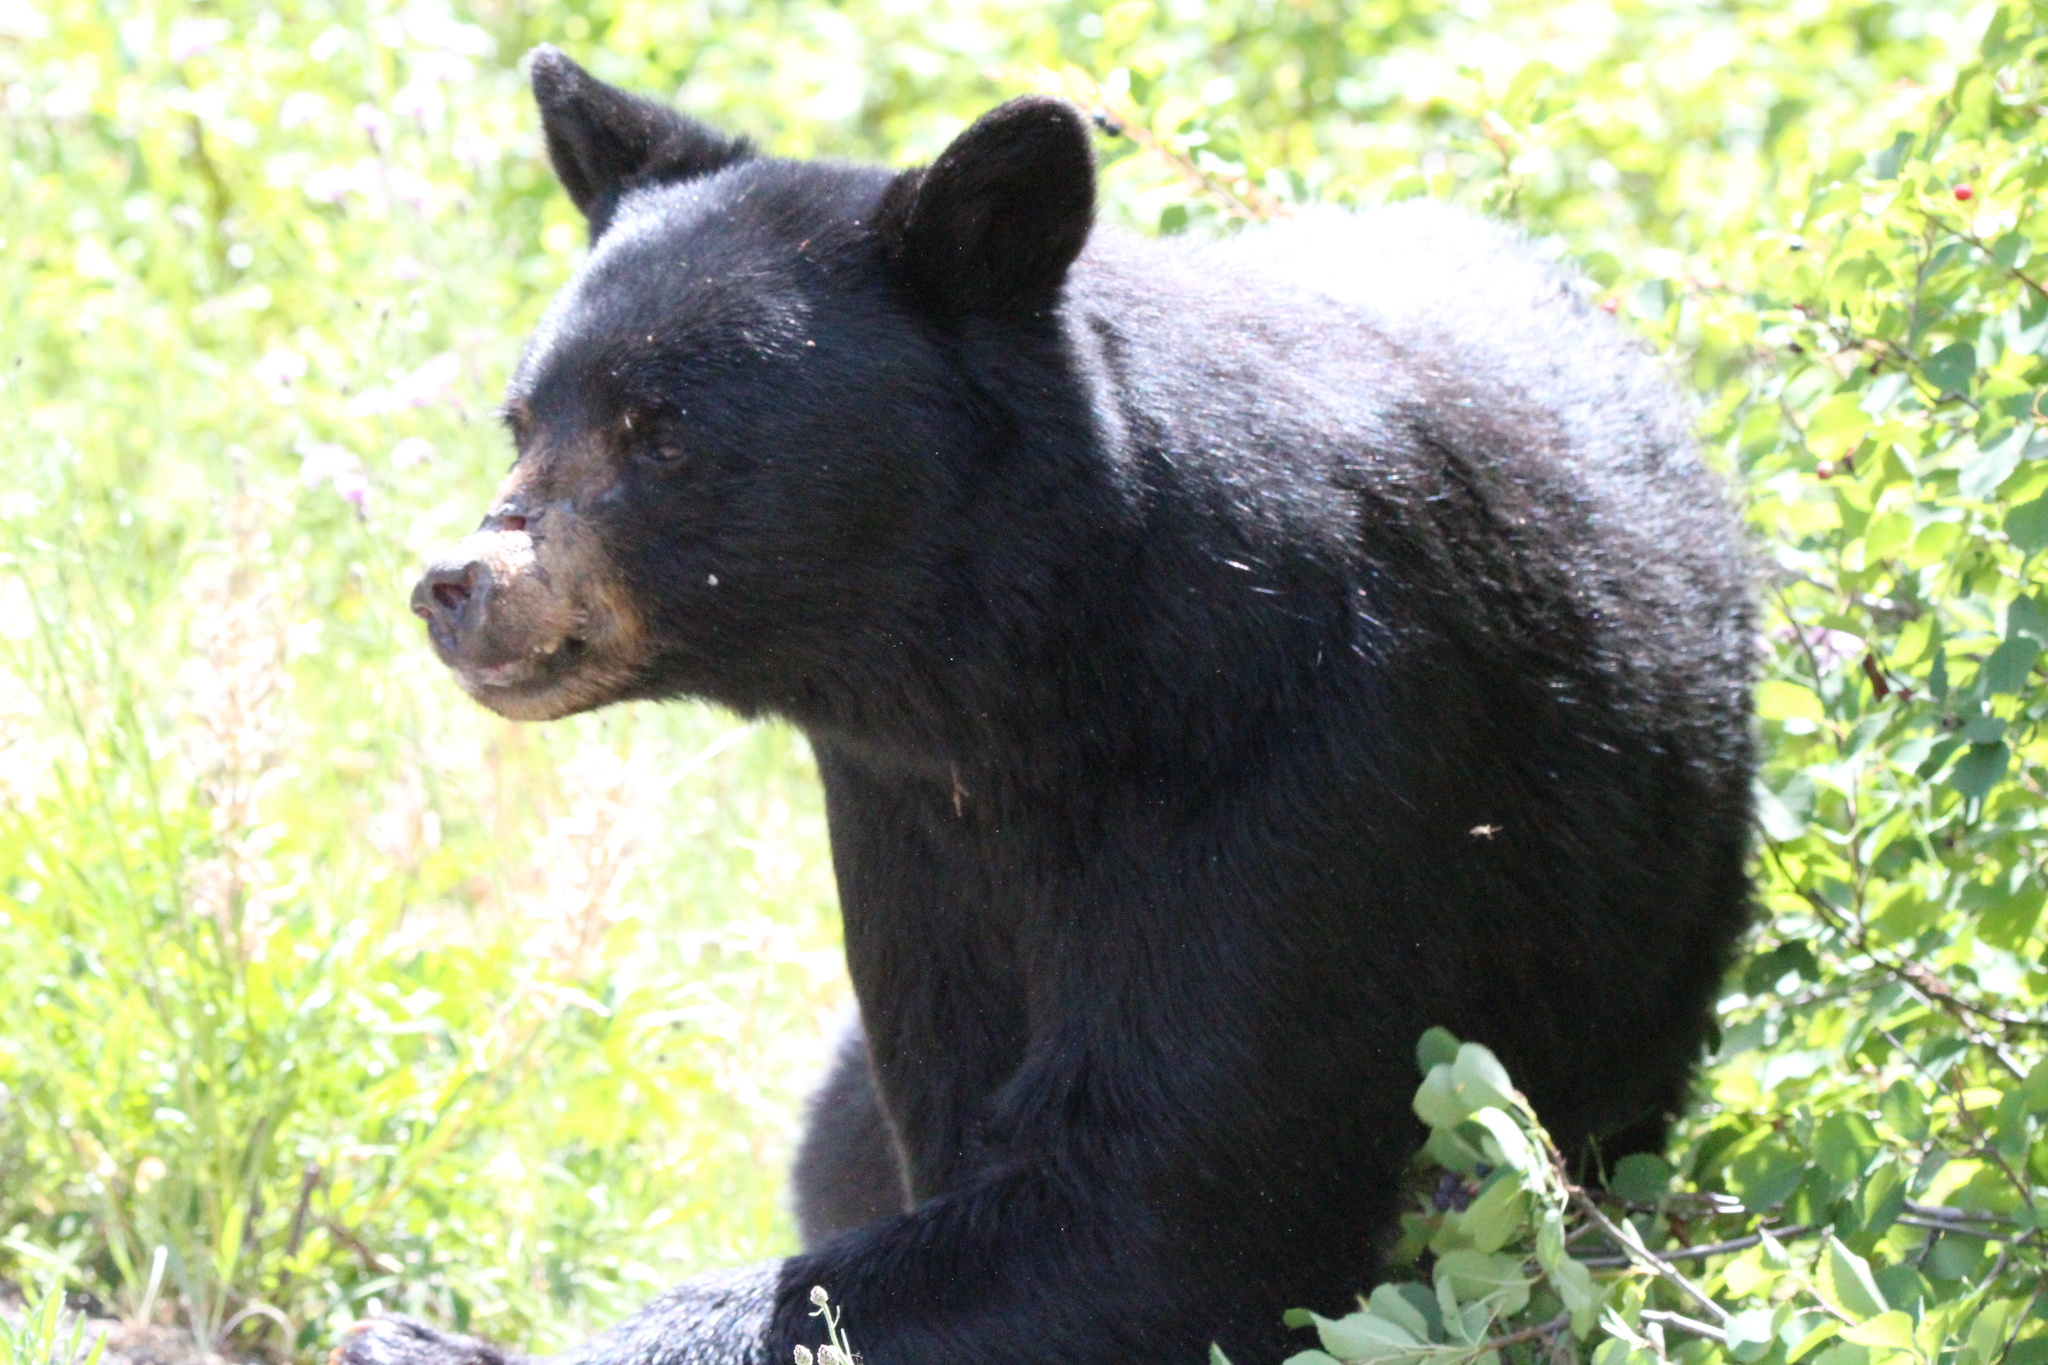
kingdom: Animalia
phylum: Chordata
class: Mammalia
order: Carnivora
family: Ursidae
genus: Ursus
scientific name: Ursus americanus
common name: American black bear
